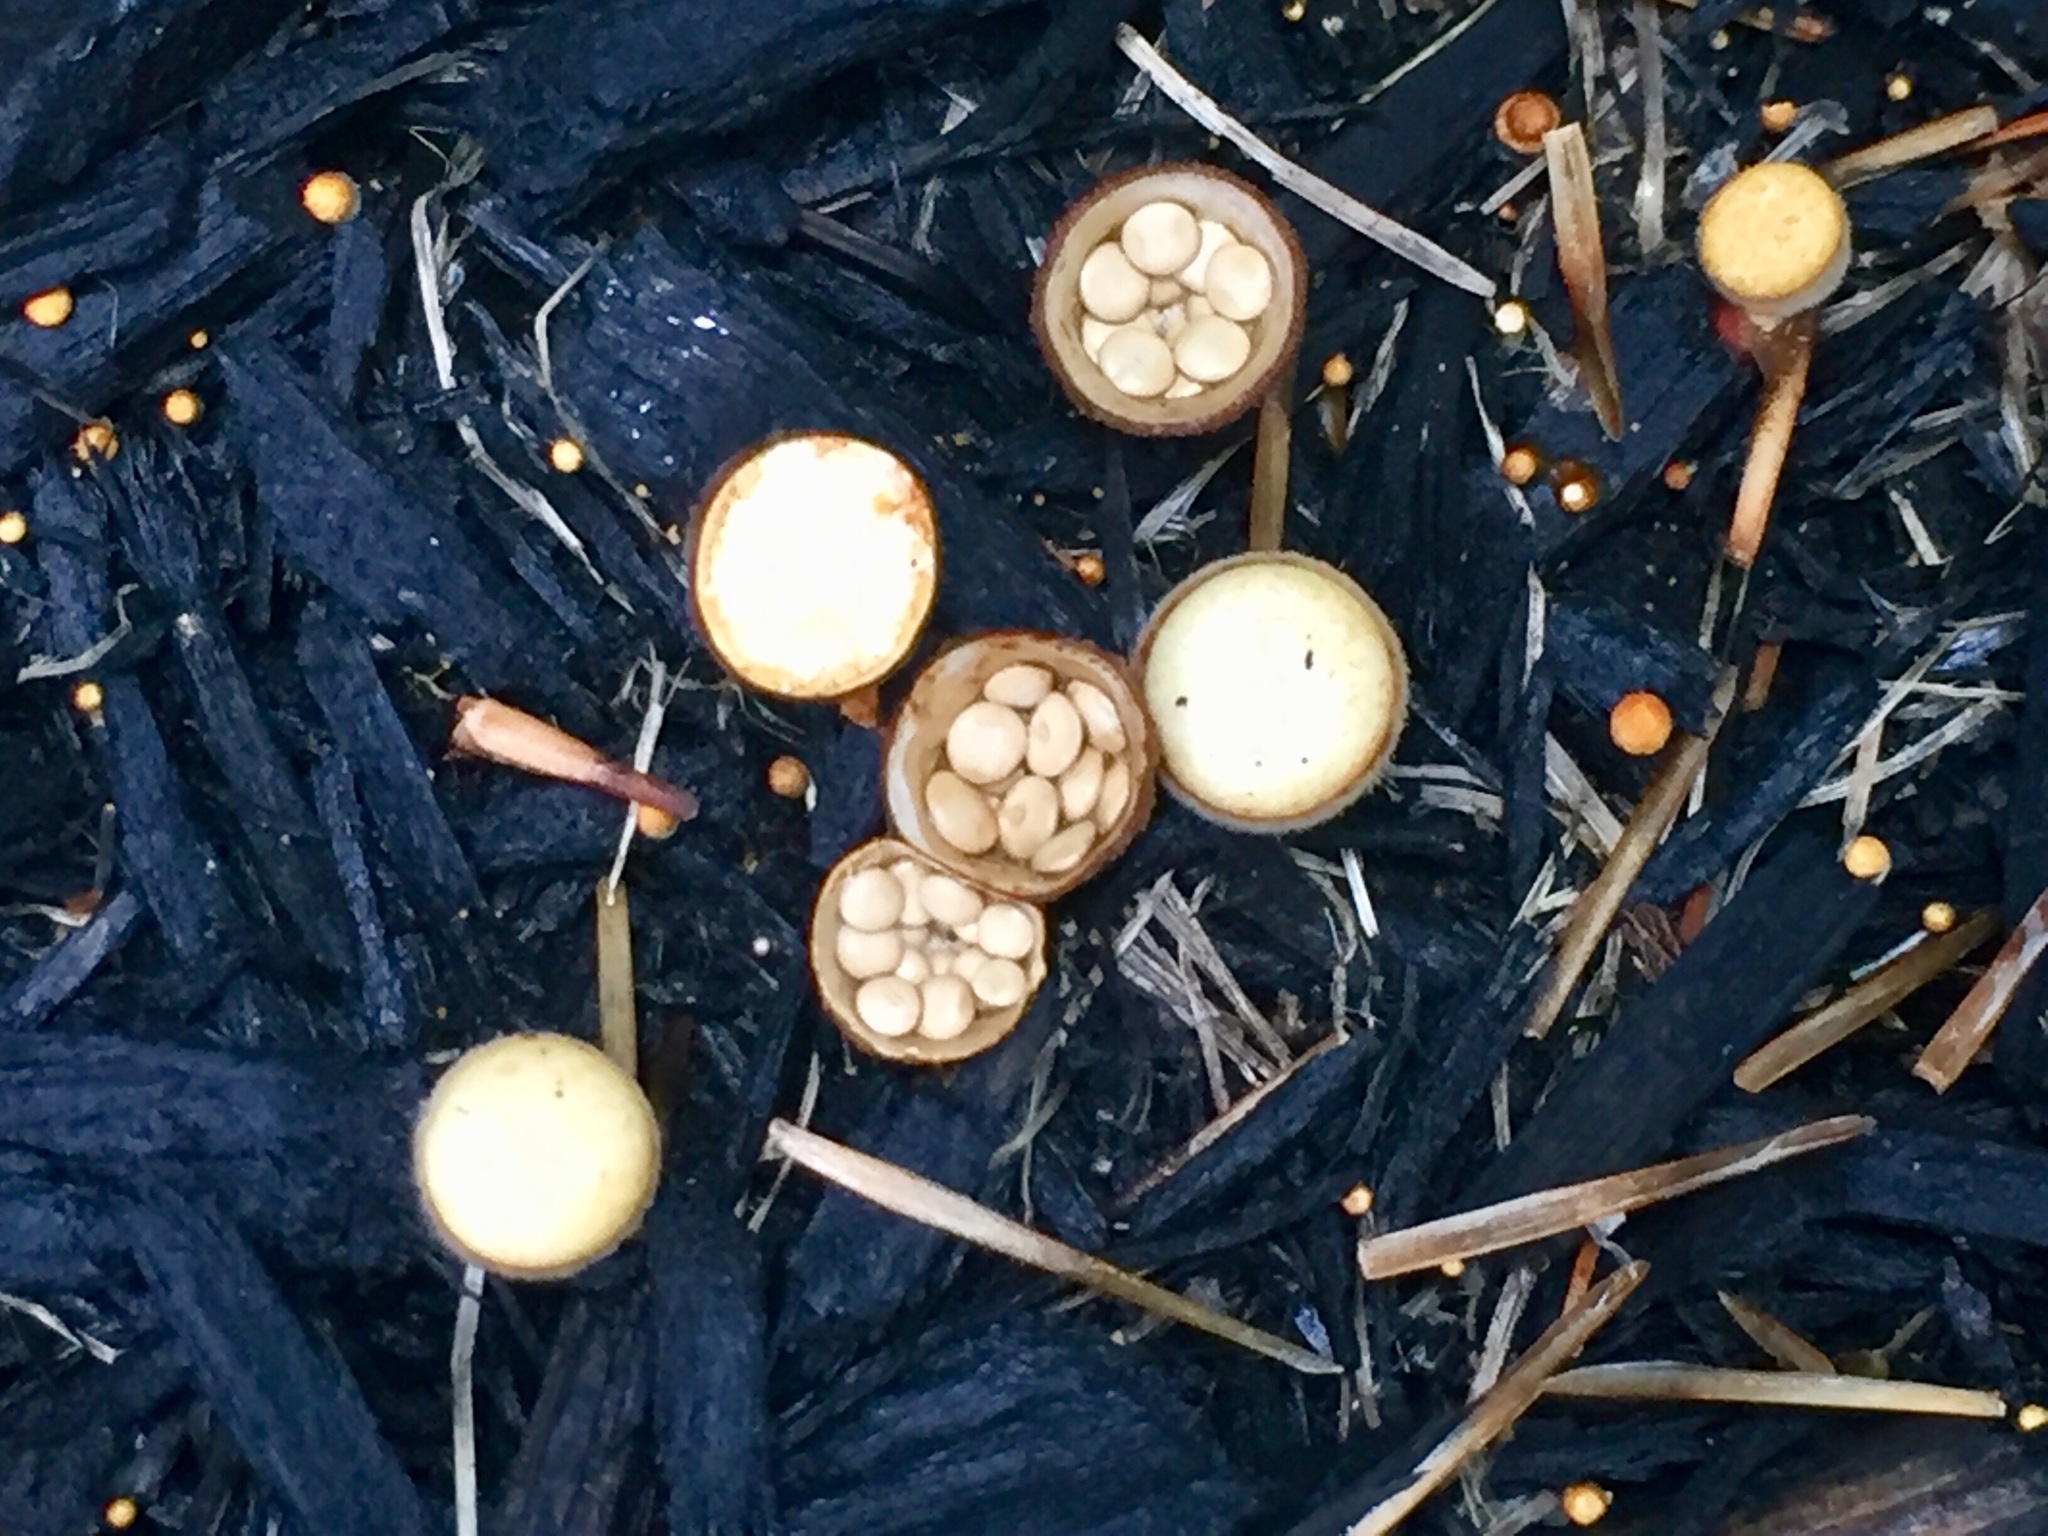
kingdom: Fungi
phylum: Basidiomycota
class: Agaricomycetes
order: Agaricales
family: Nidulariaceae
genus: Crucibulum
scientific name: Crucibulum laeve
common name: Common bird's nest
